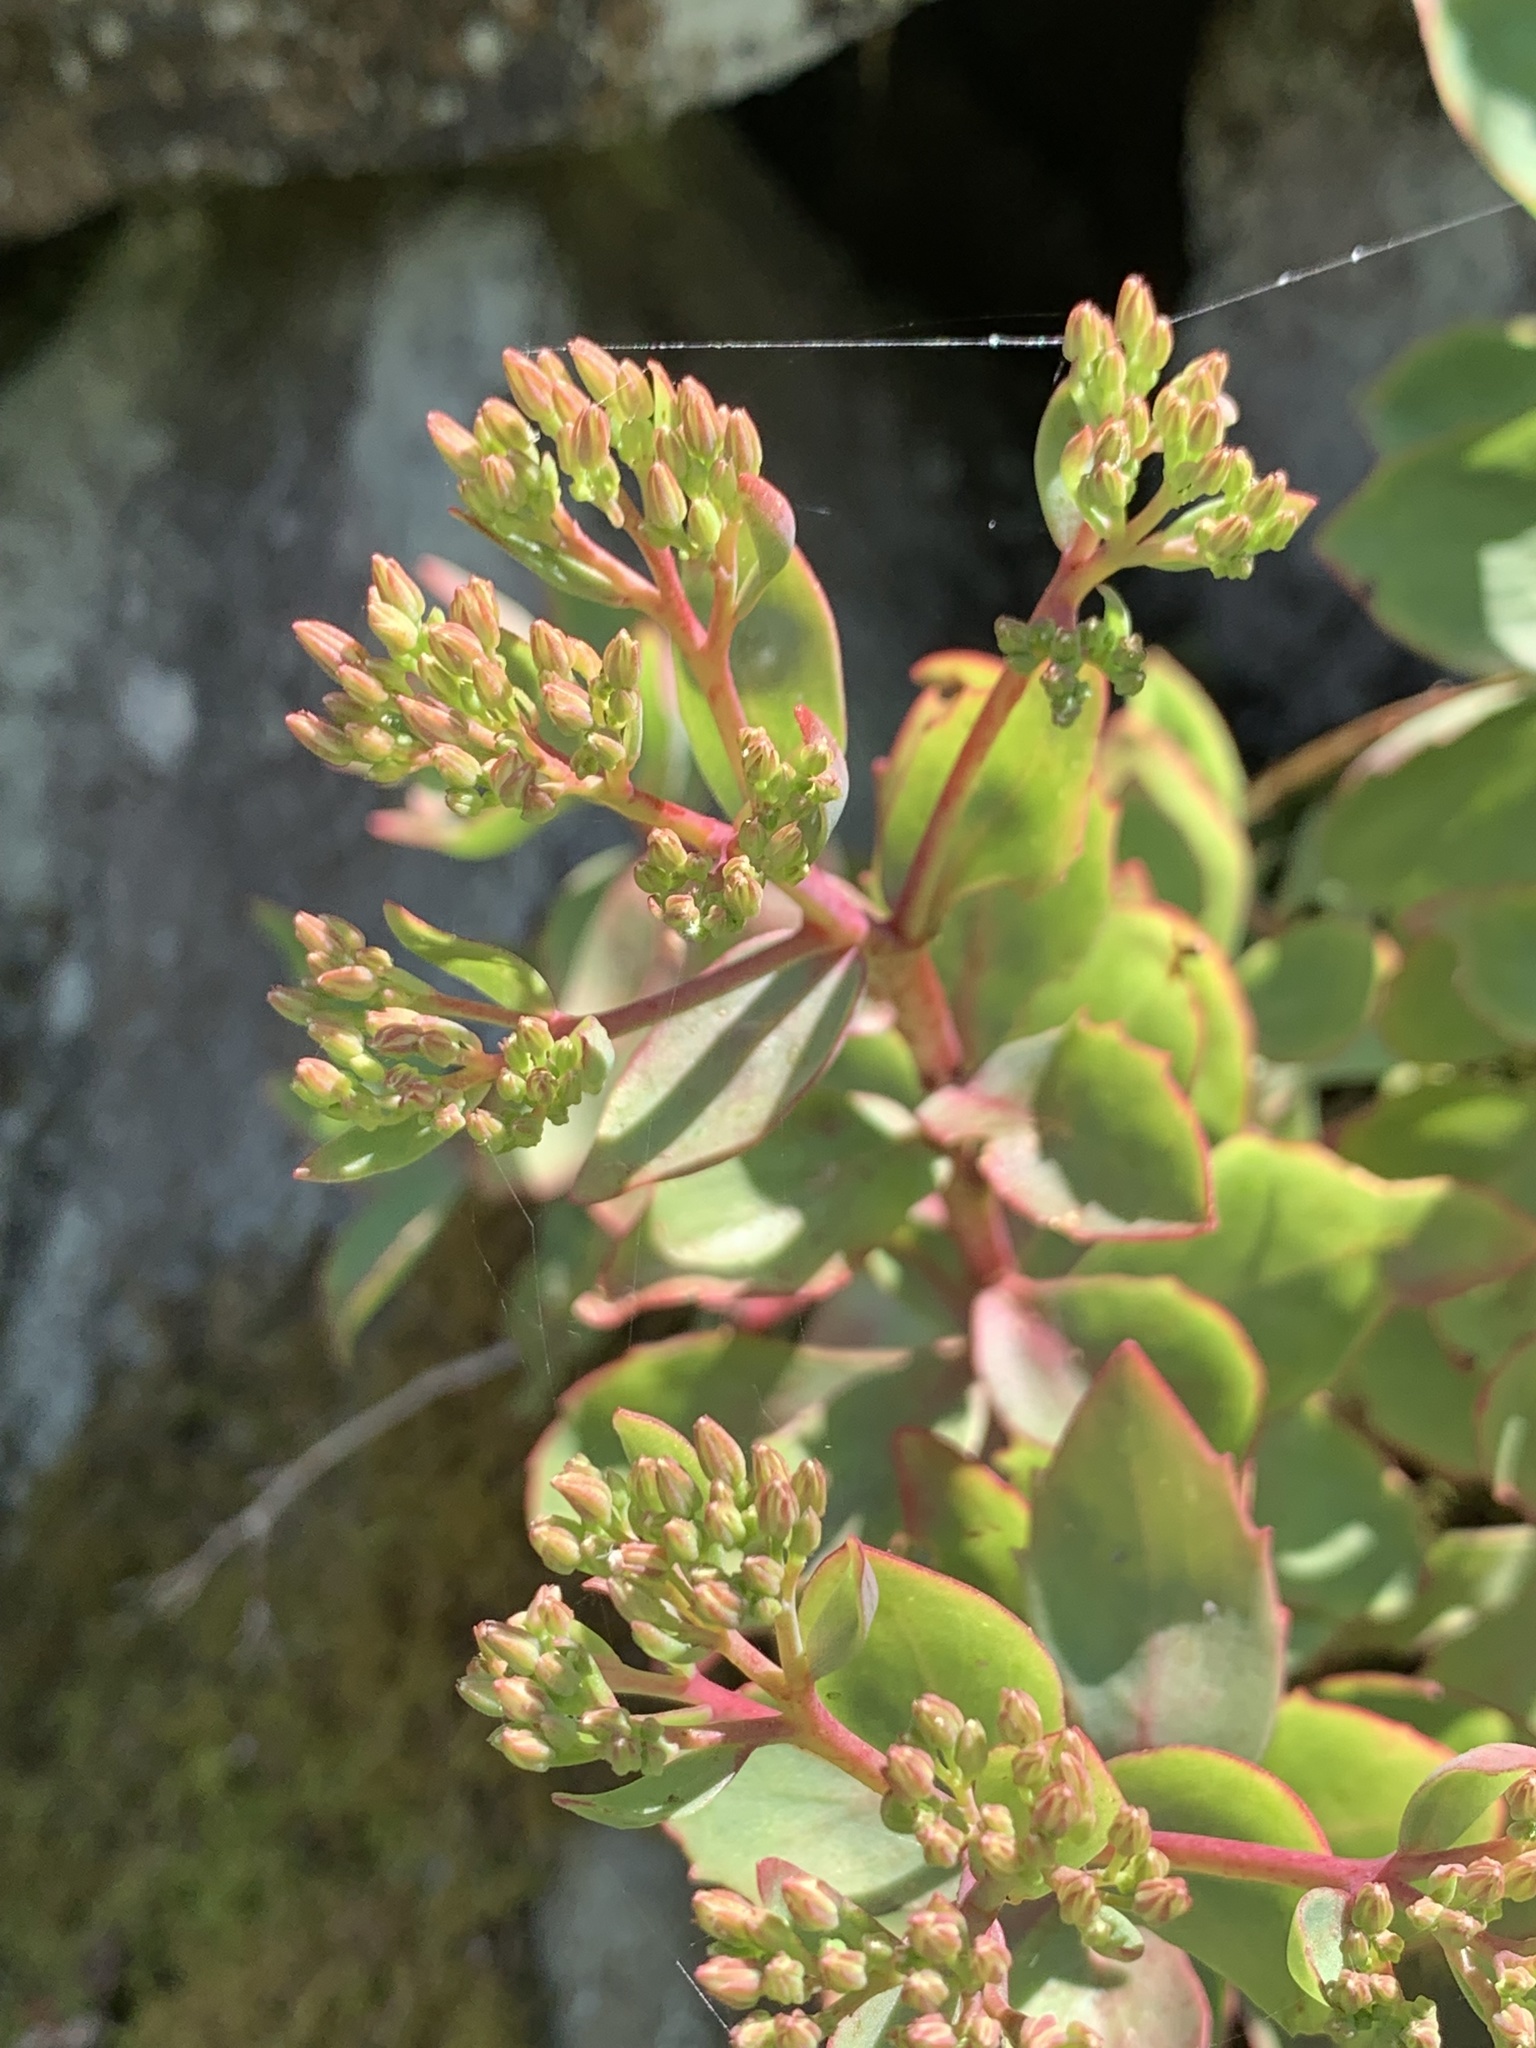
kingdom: Plantae
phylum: Tracheophyta
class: Magnoliopsida
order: Saxifragales
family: Crassulaceae
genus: Hylotelephium
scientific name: Hylotelephium telephioides
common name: Allegheny stonecrop
